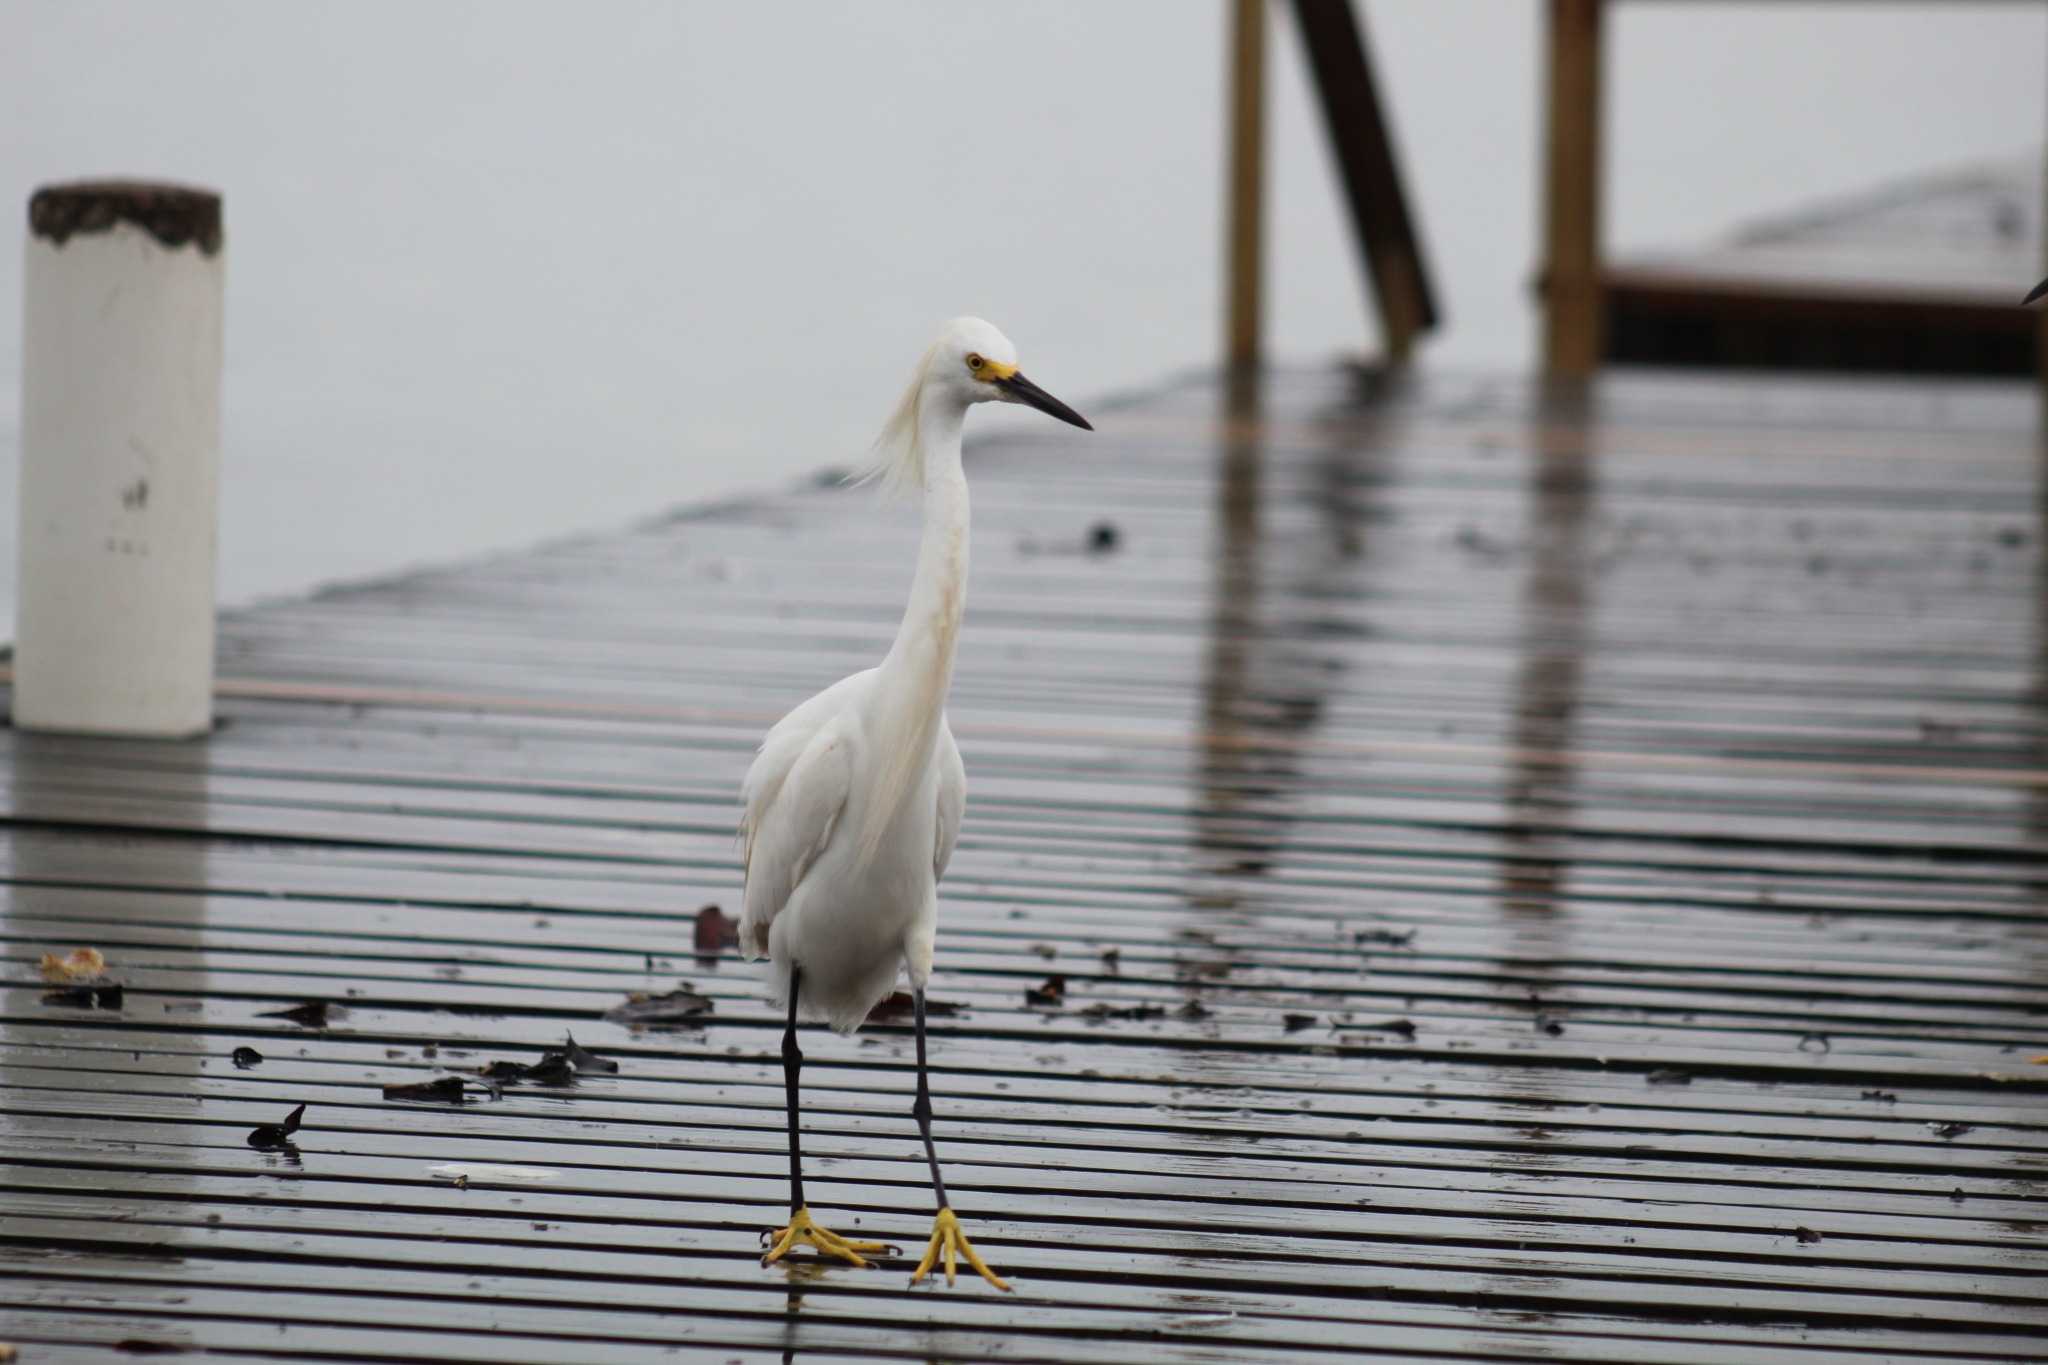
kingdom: Animalia
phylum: Chordata
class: Aves
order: Pelecaniformes
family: Ardeidae
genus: Egretta
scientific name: Egretta thula
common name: Snowy egret
